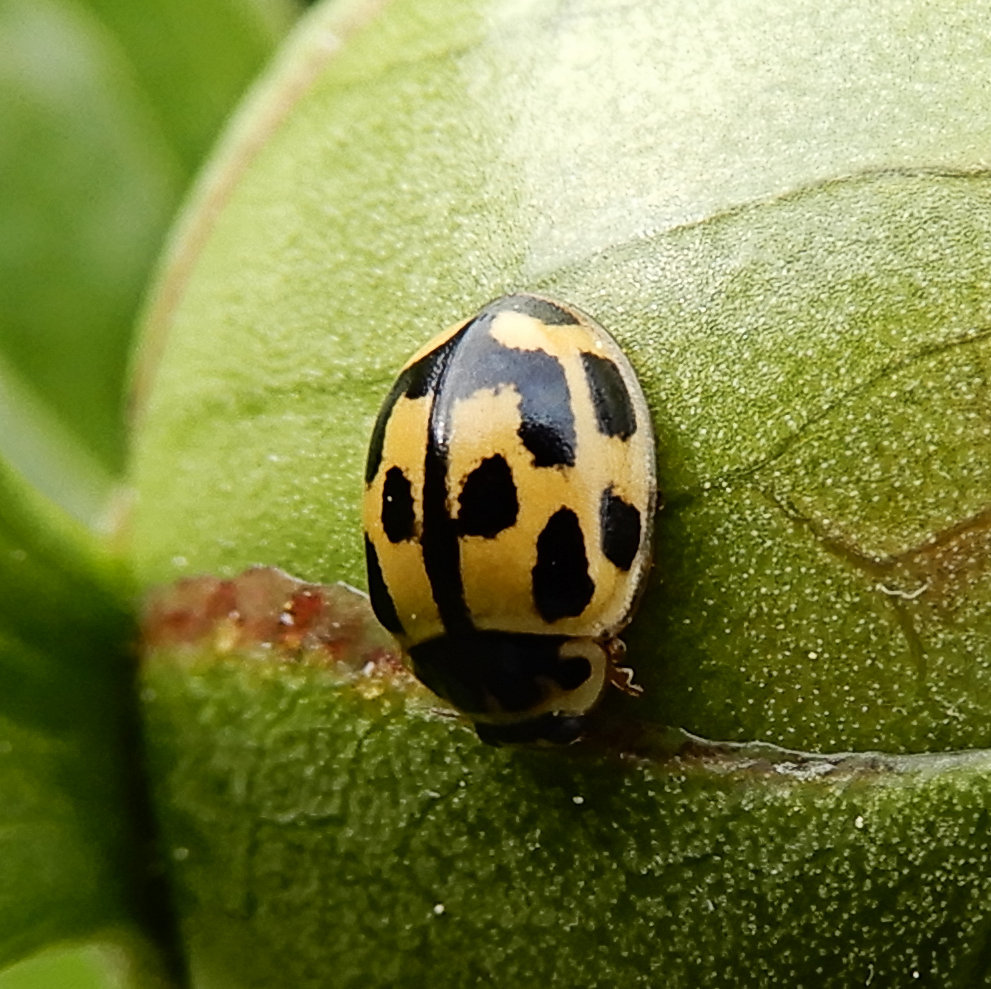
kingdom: Animalia
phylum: Arthropoda
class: Insecta
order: Coleoptera
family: Coccinellidae
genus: Propylaea
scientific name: Propylaea quatuordecimpunctata
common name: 14-spotted ladybird beetle
